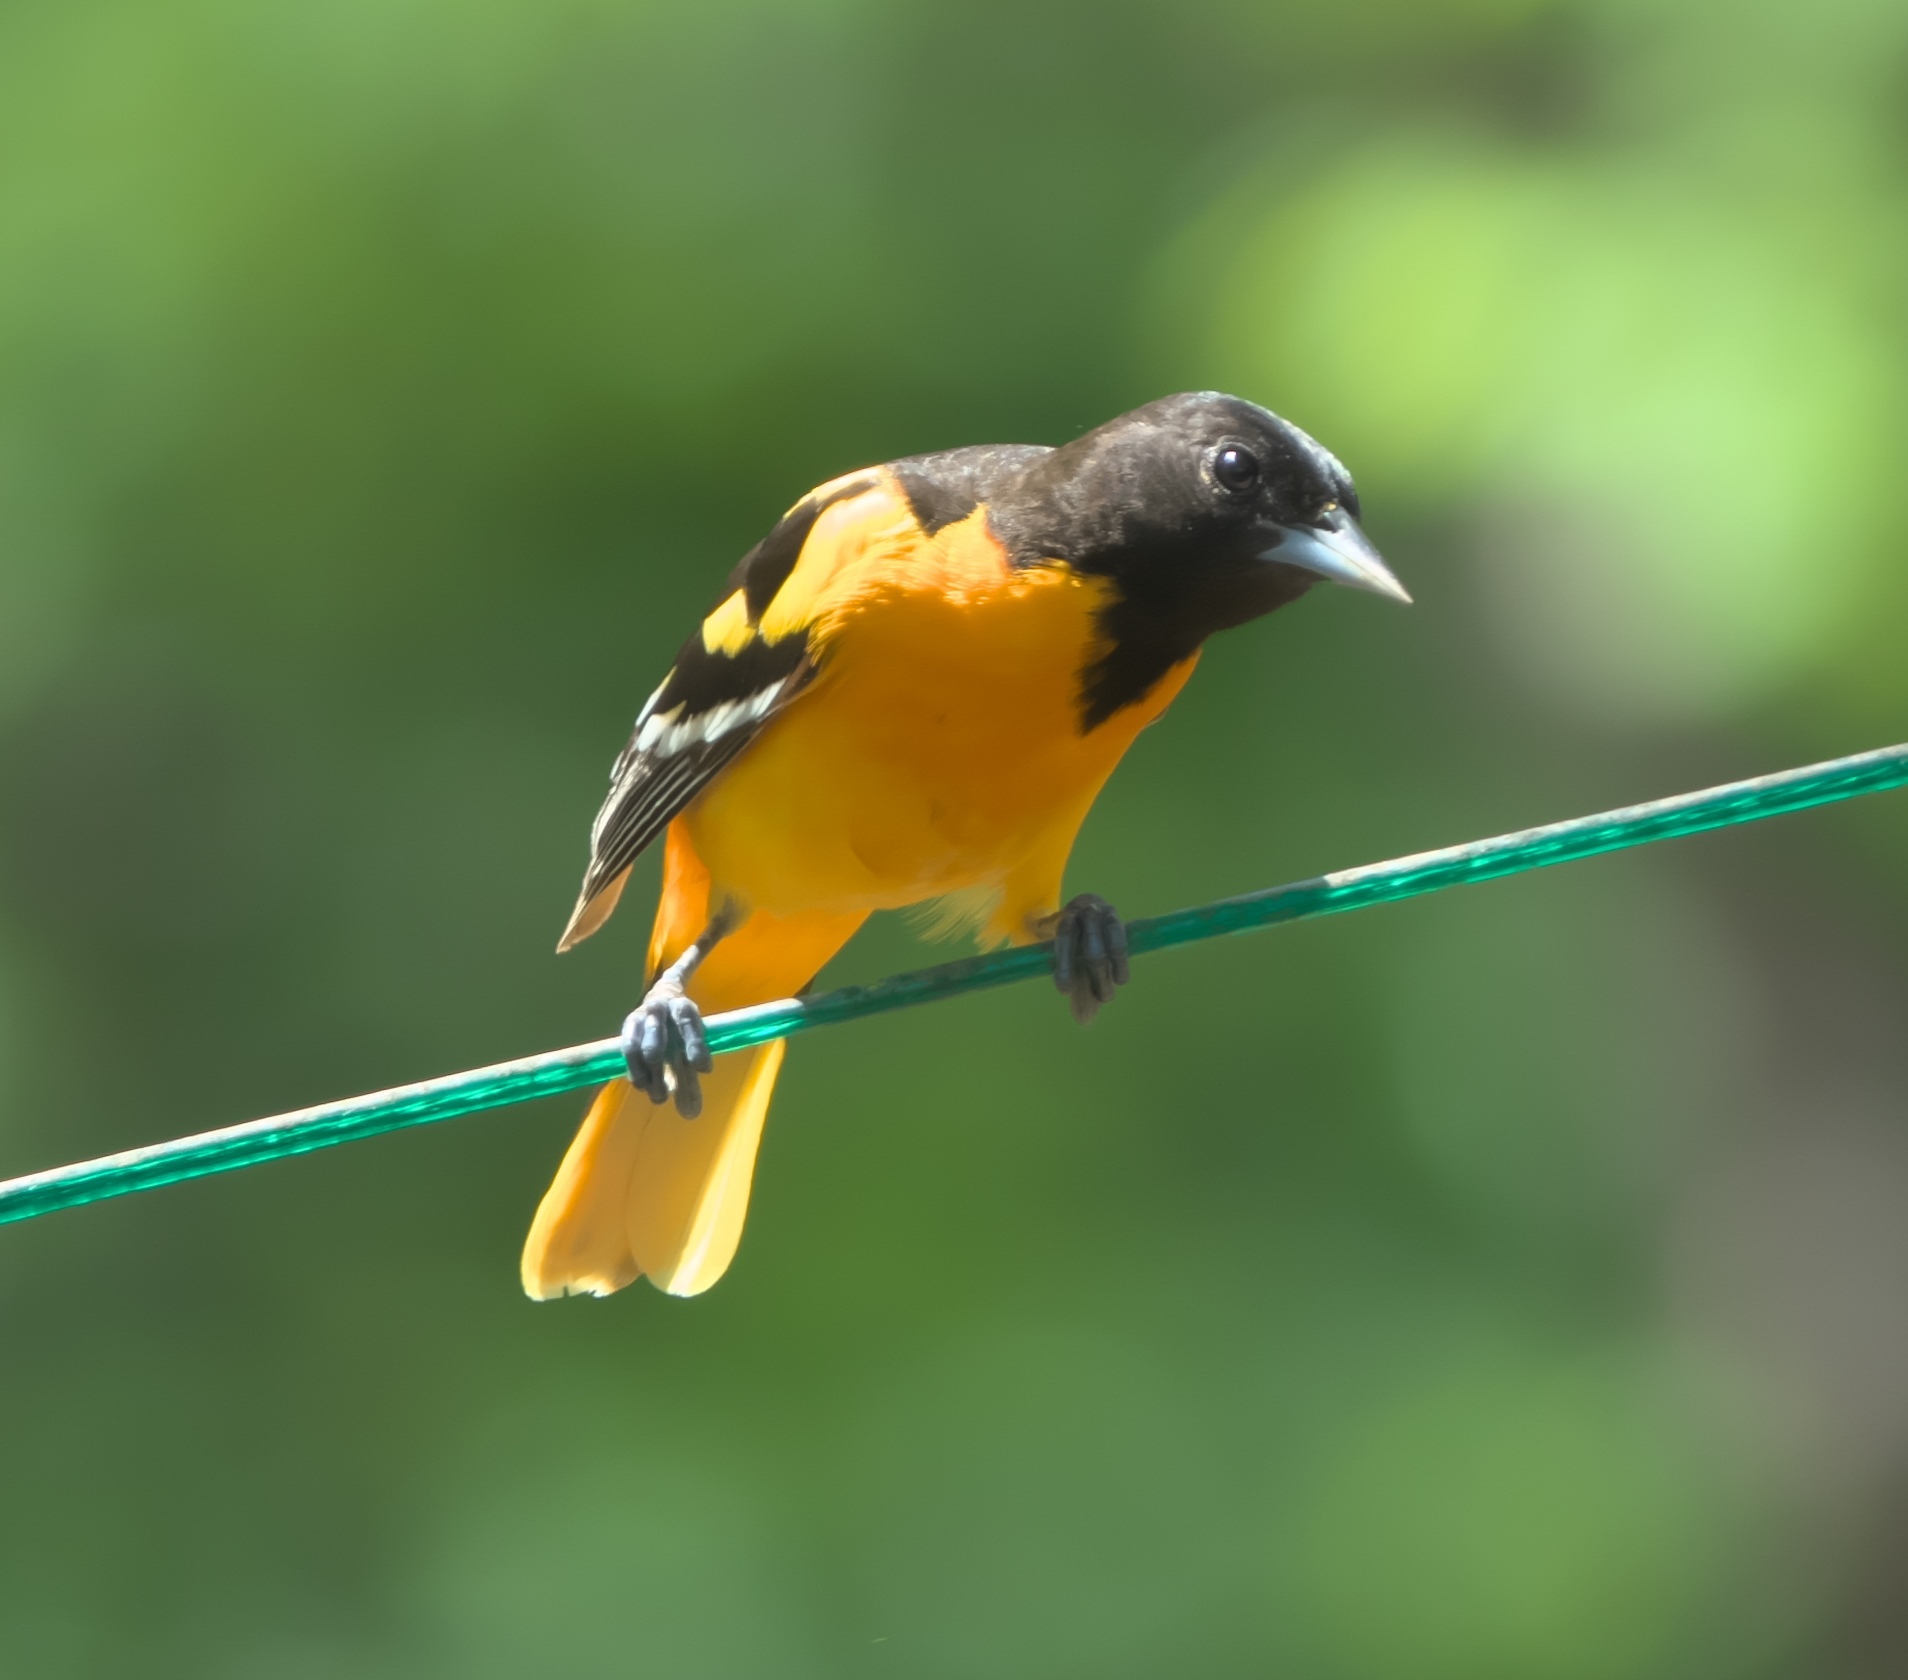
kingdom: Animalia
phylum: Chordata
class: Aves
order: Passeriformes
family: Icteridae
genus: Icterus
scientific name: Icterus galbula
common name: Baltimore oriole
